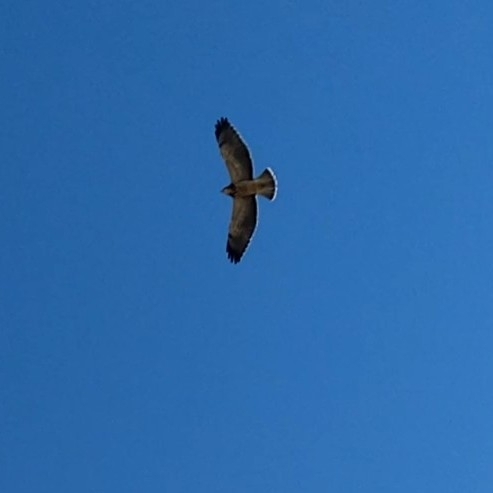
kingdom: Animalia
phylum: Chordata
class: Aves
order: Accipitriformes
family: Accipitridae
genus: Buteo
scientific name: Buteo swainsoni
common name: Swainson's hawk
